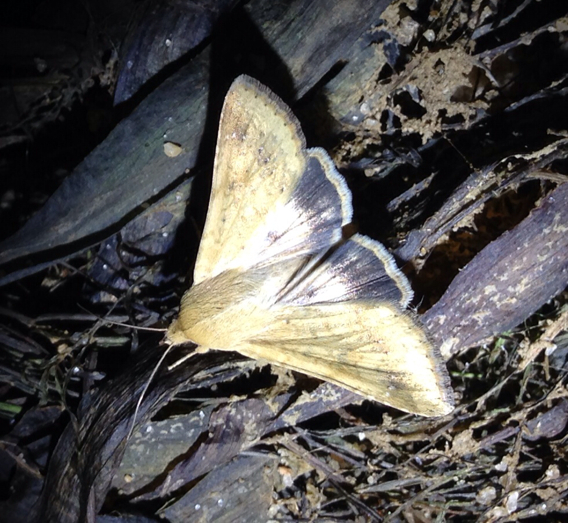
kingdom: Animalia
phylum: Arthropoda
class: Insecta
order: Lepidoptera
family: Noctuidae
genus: Helicoverpa
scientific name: Helicoverpa zea
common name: Bollworm
